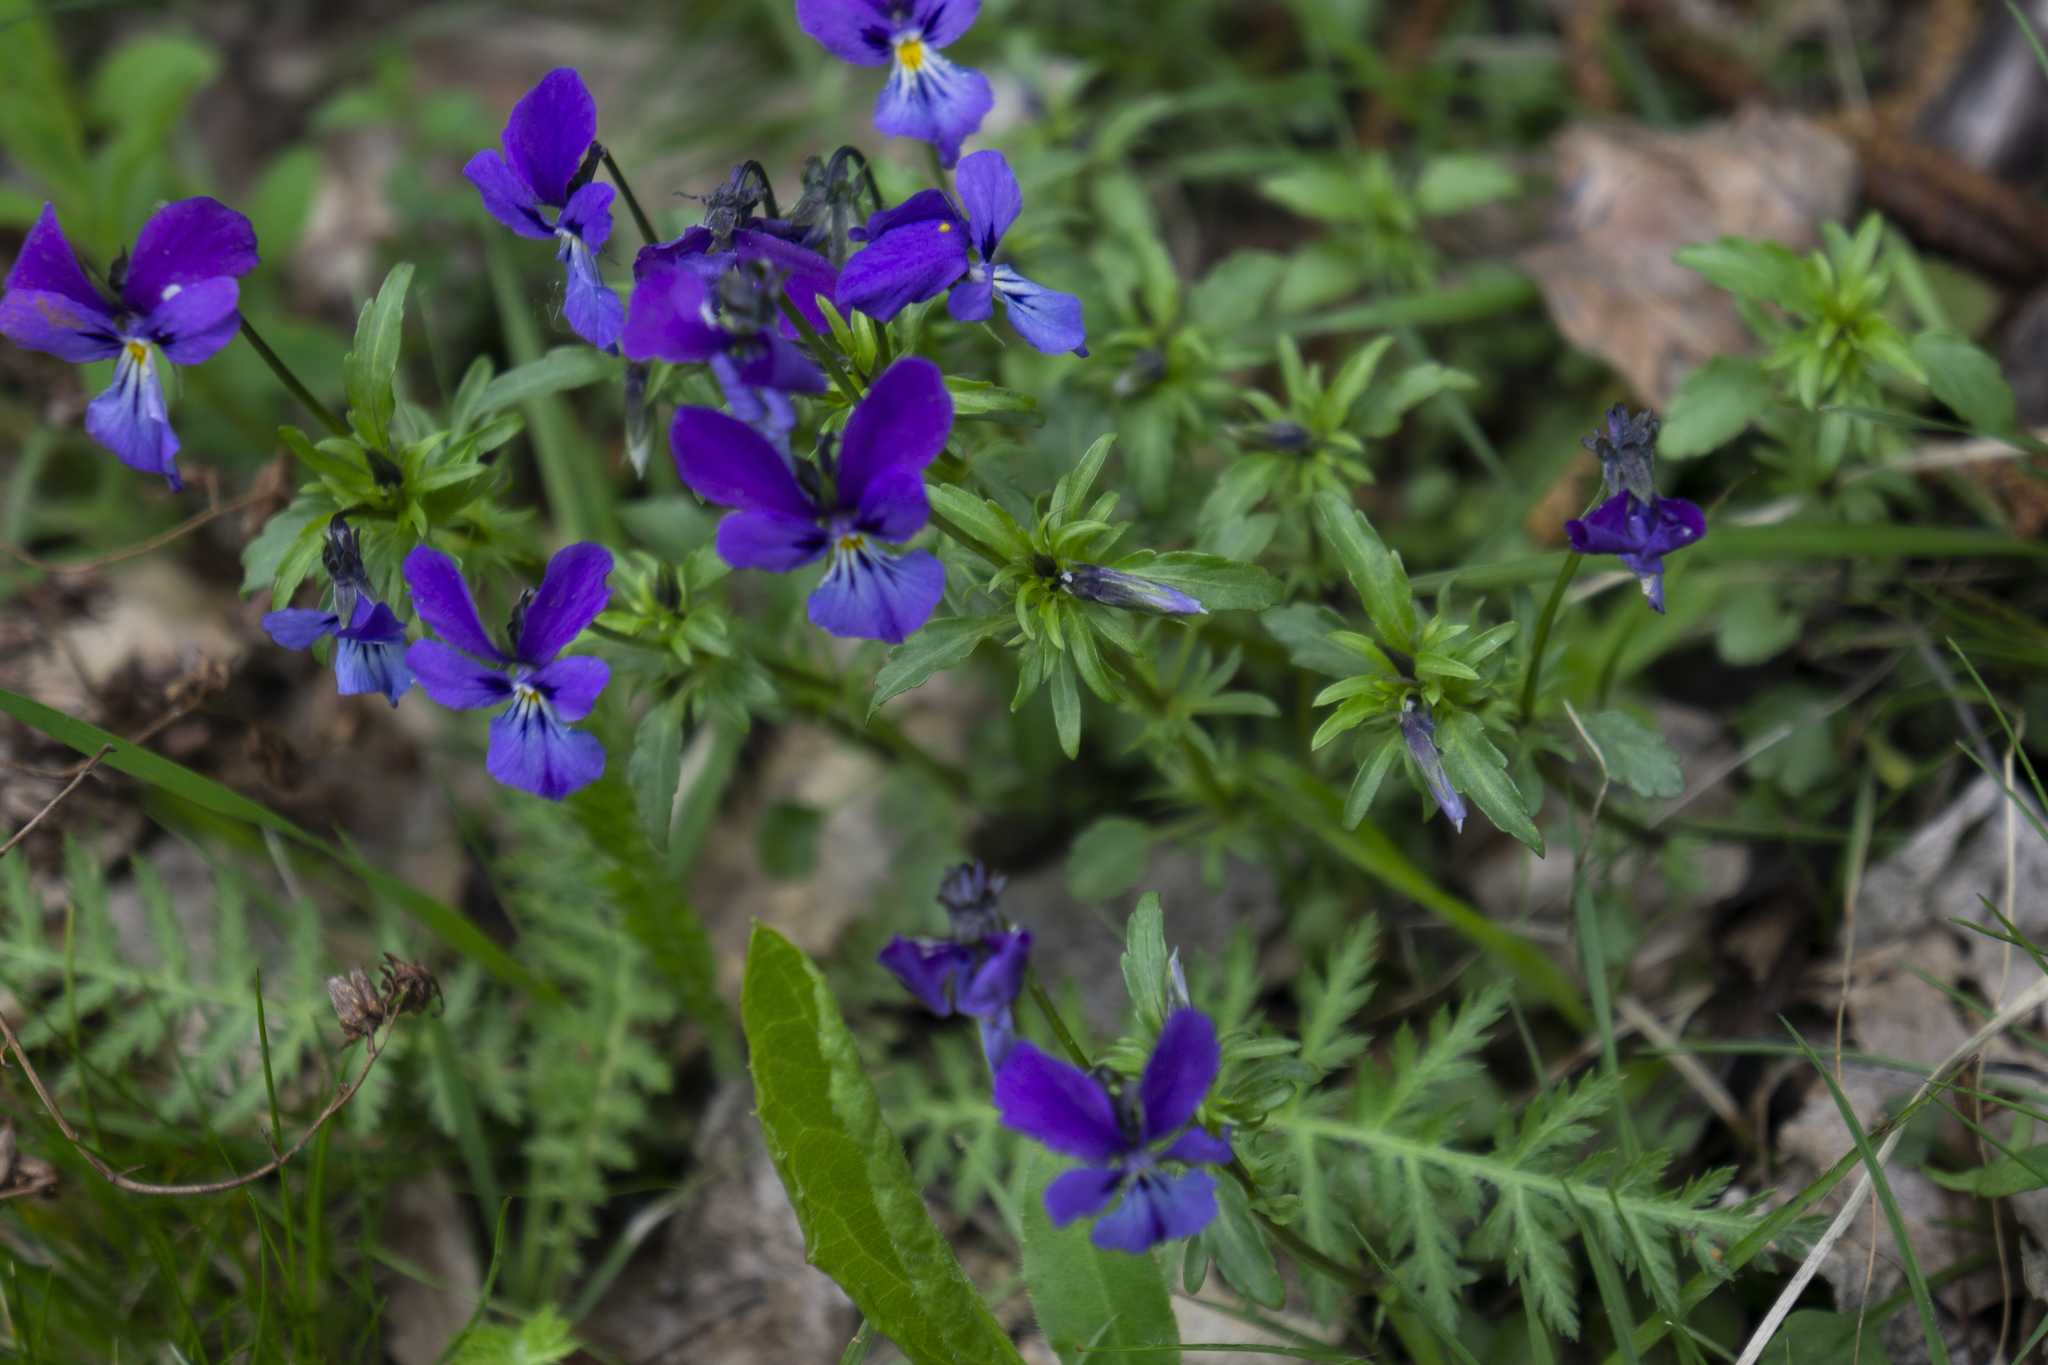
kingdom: Plantae
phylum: Tracheophyta
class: Magnoliopsida
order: Malpighiales
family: Violaceae
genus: Viola
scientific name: Viola declinata
